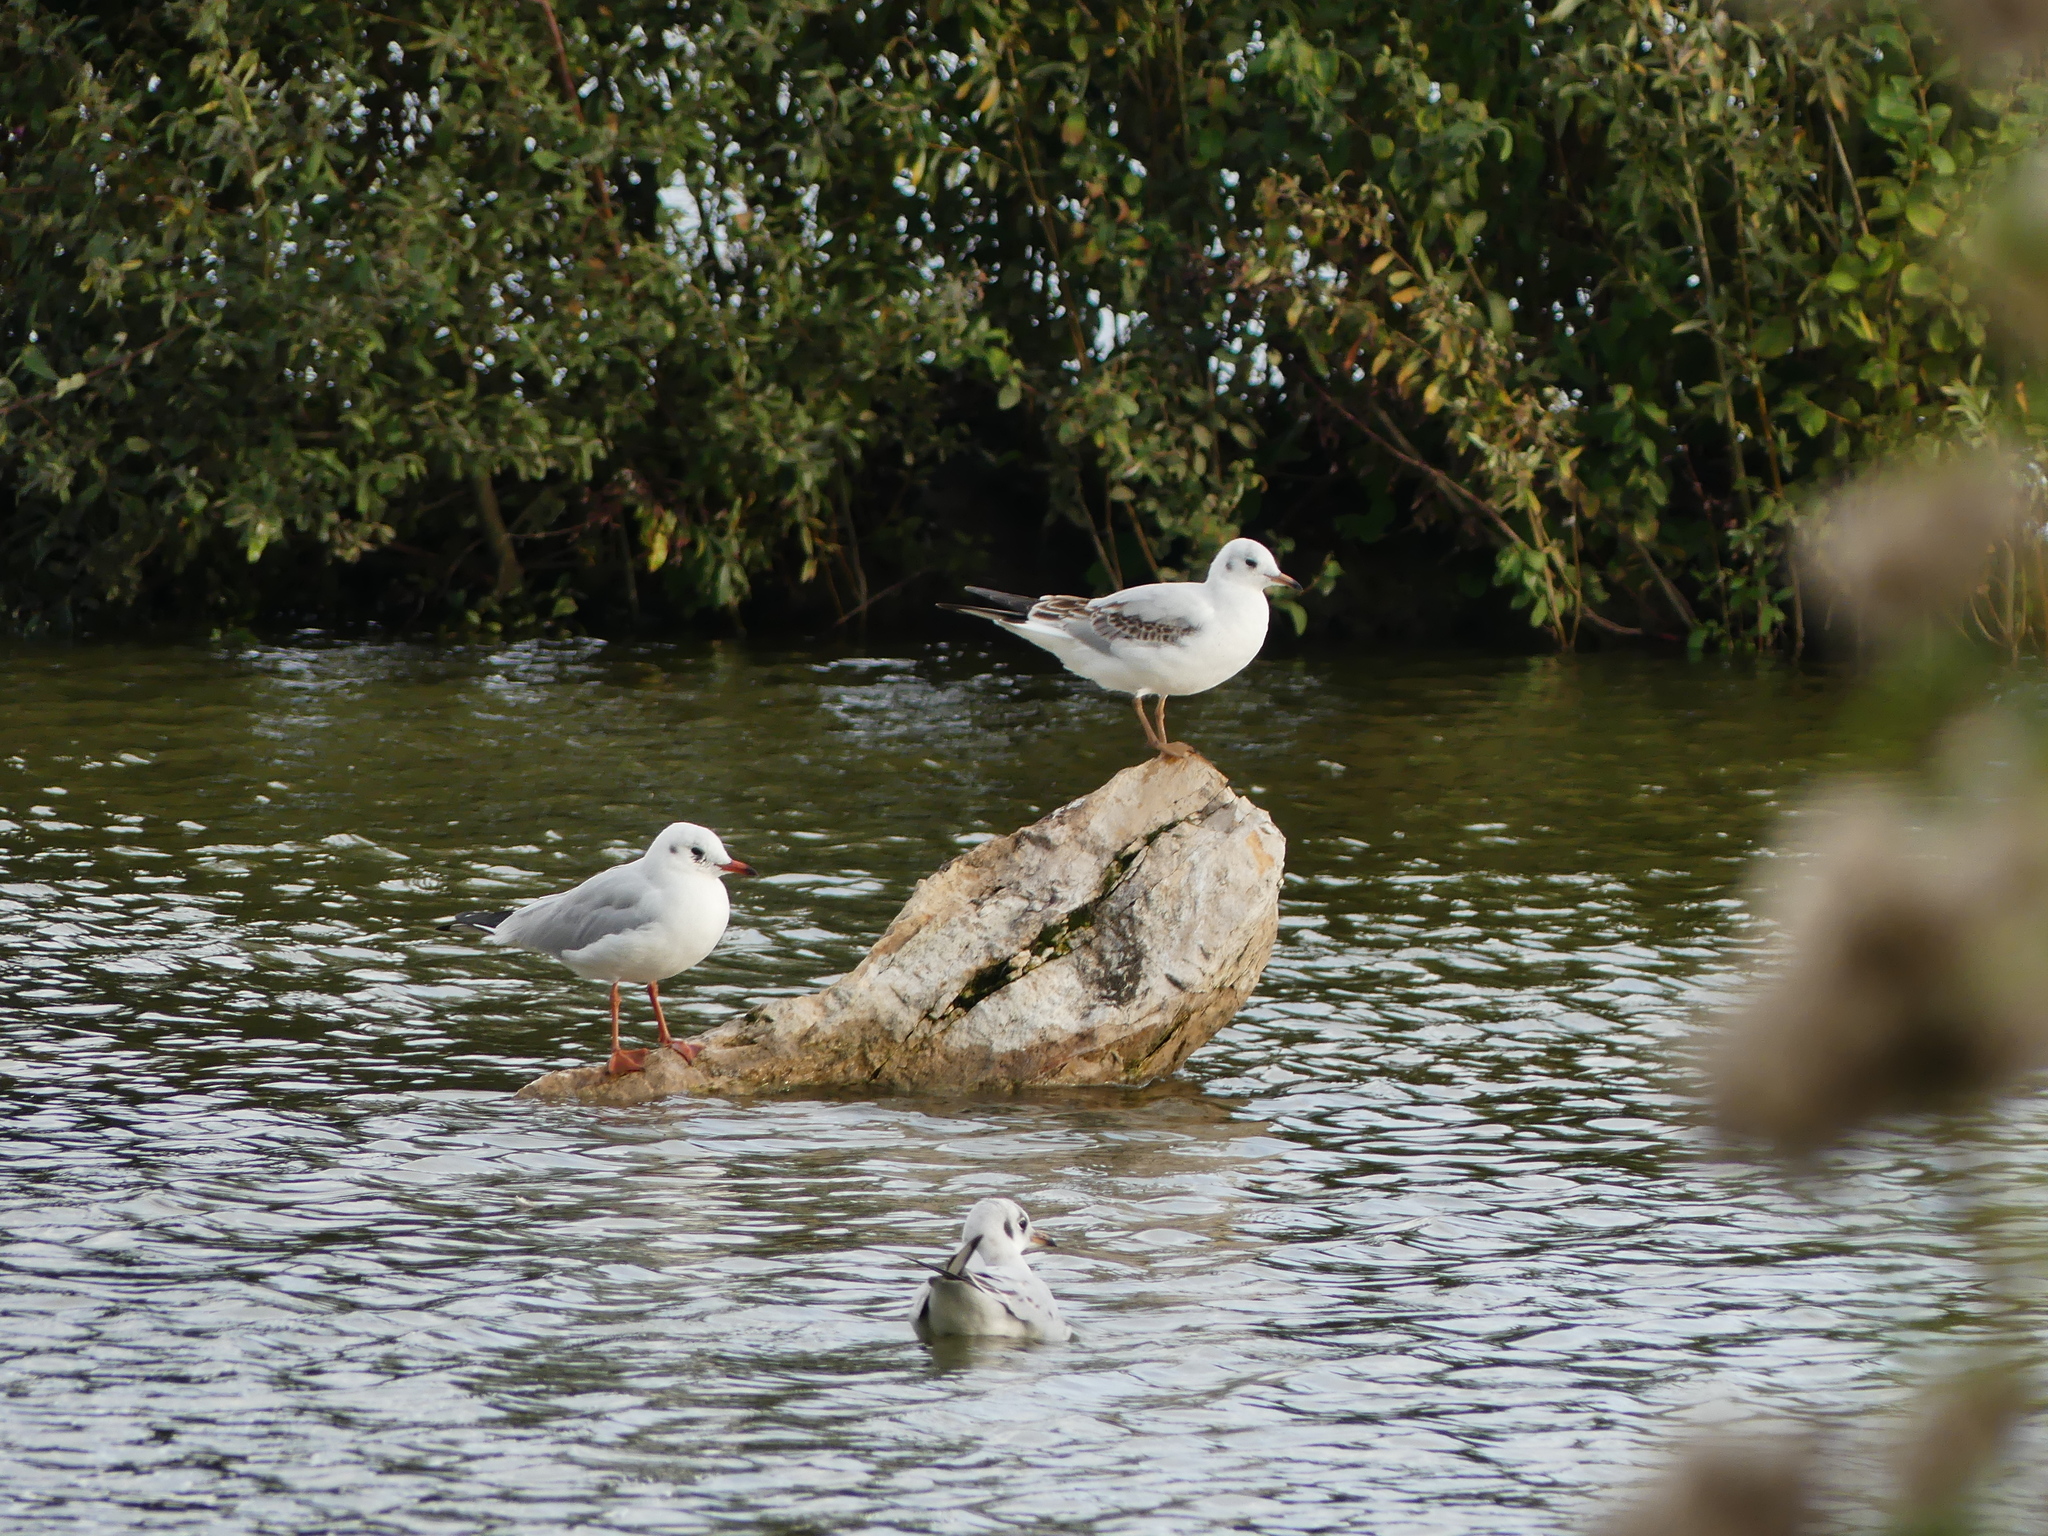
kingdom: Animalia
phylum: Chordata
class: Aves
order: Charadriiformes
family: Laridae
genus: Chroicocephalus
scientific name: Chroicocephalus ridibundus
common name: Black-headed gull
